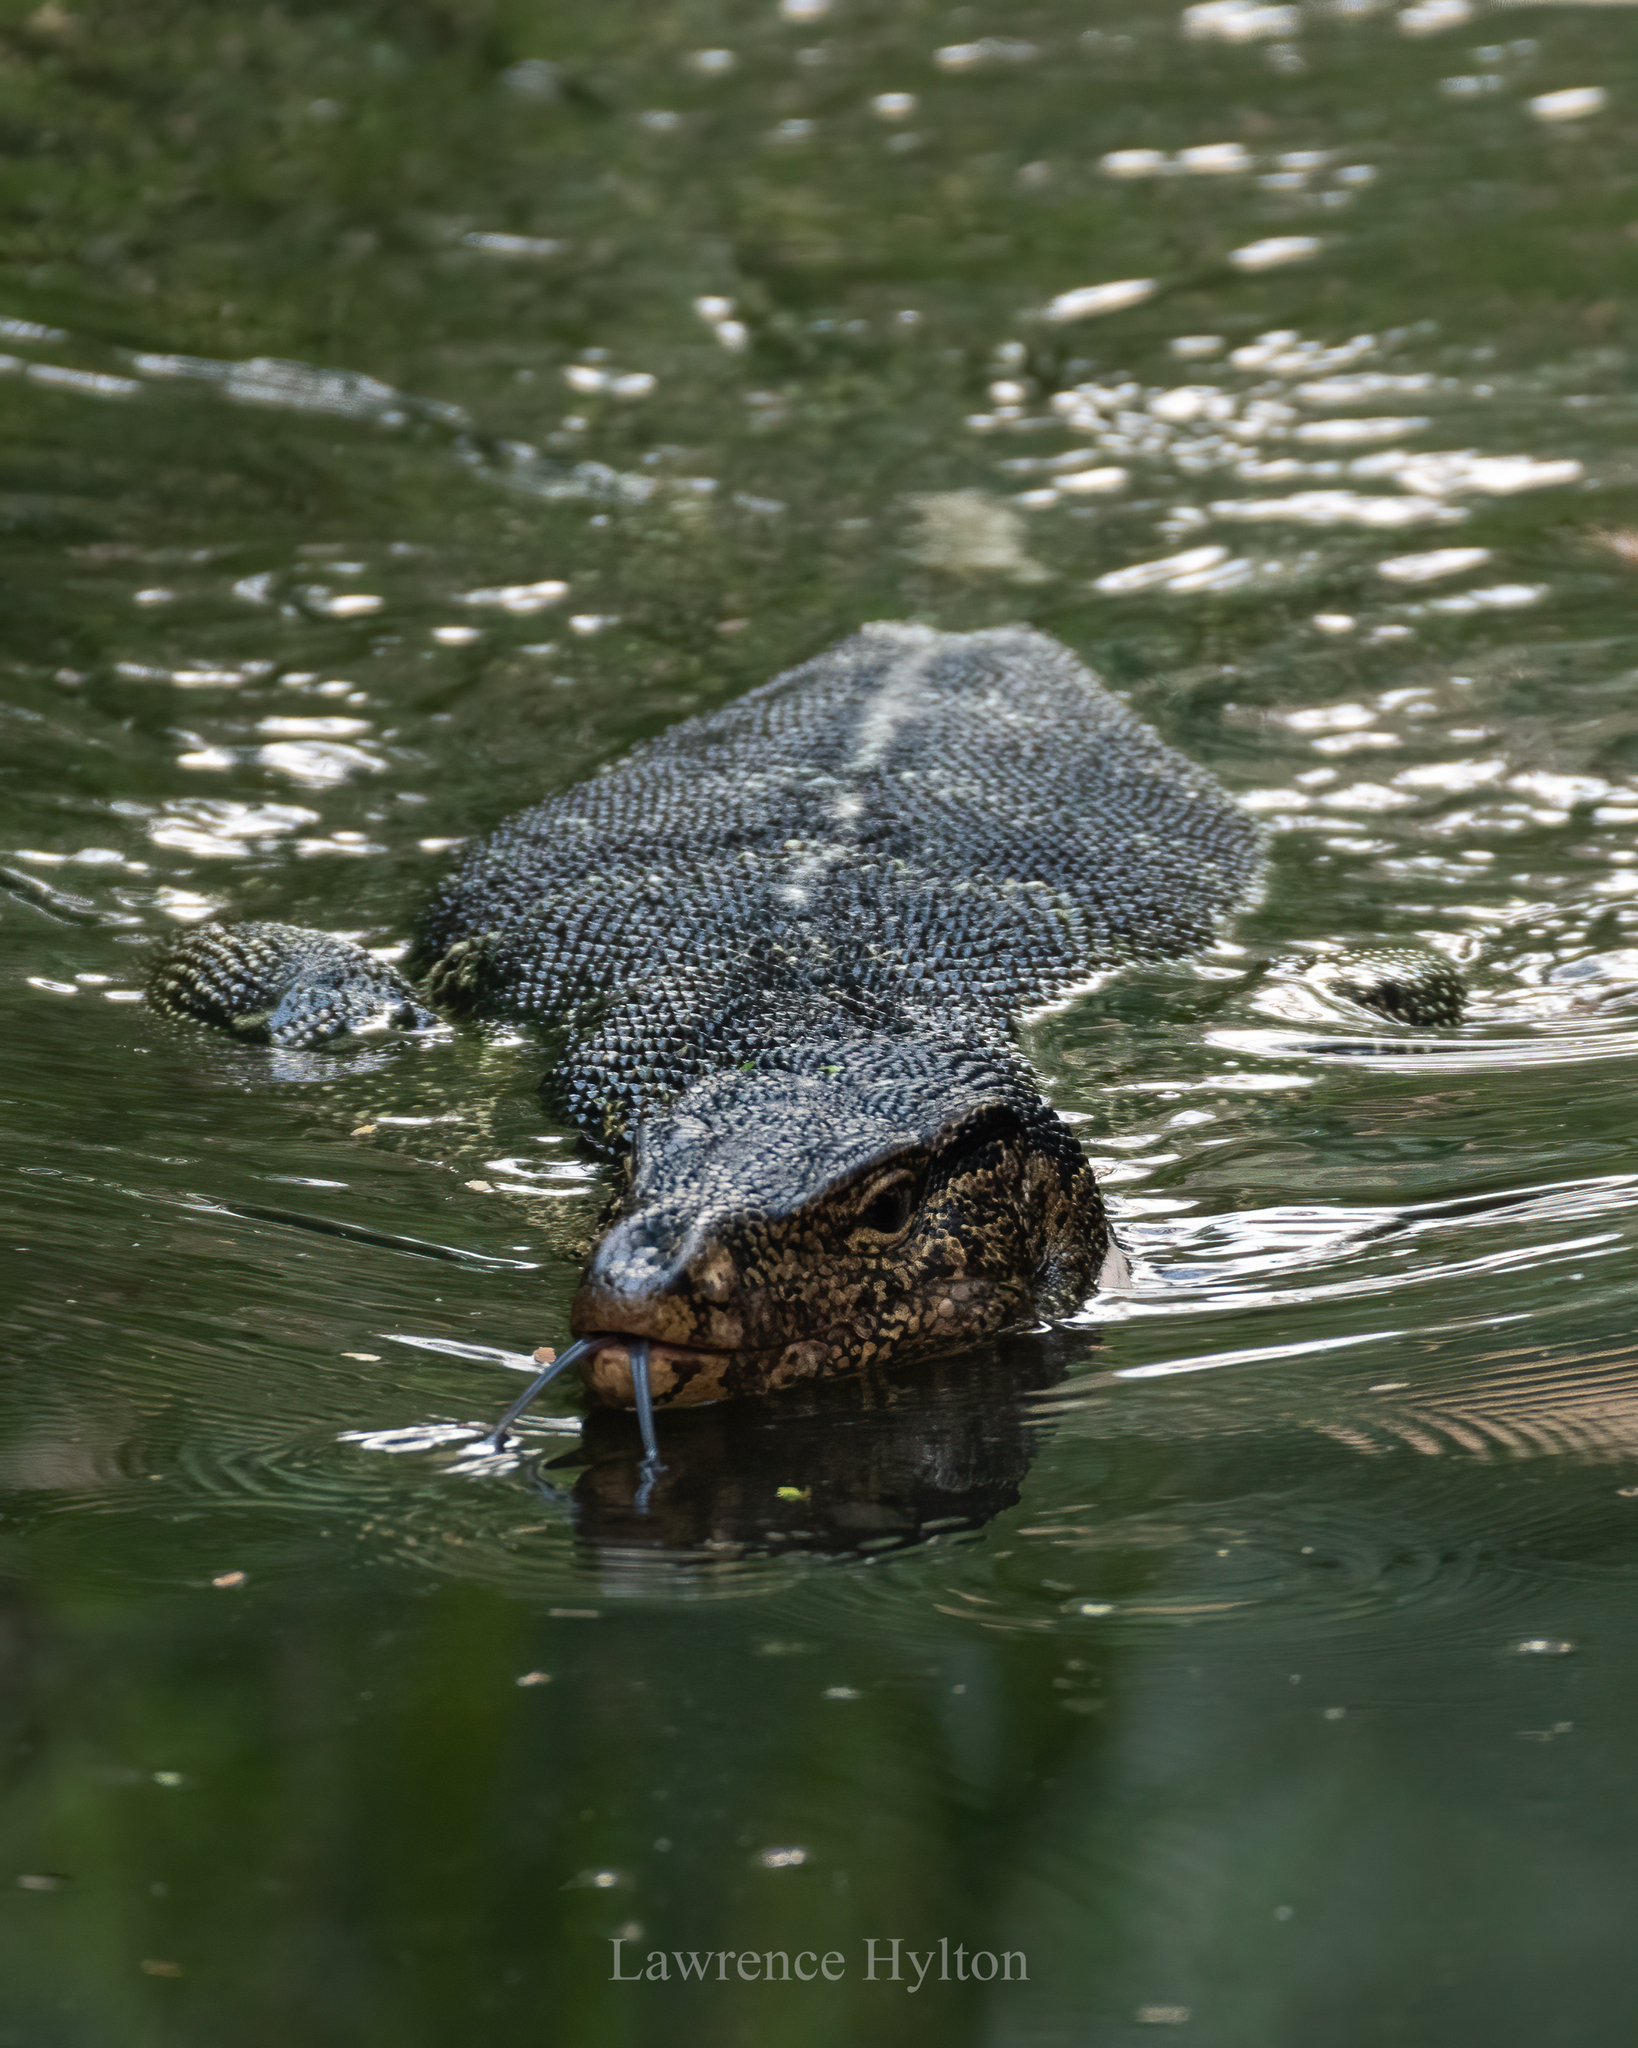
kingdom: Animalia
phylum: Chordata
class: Squamata
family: Varanidae
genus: Varanus
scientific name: Varanus salvator
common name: Common water monitor
